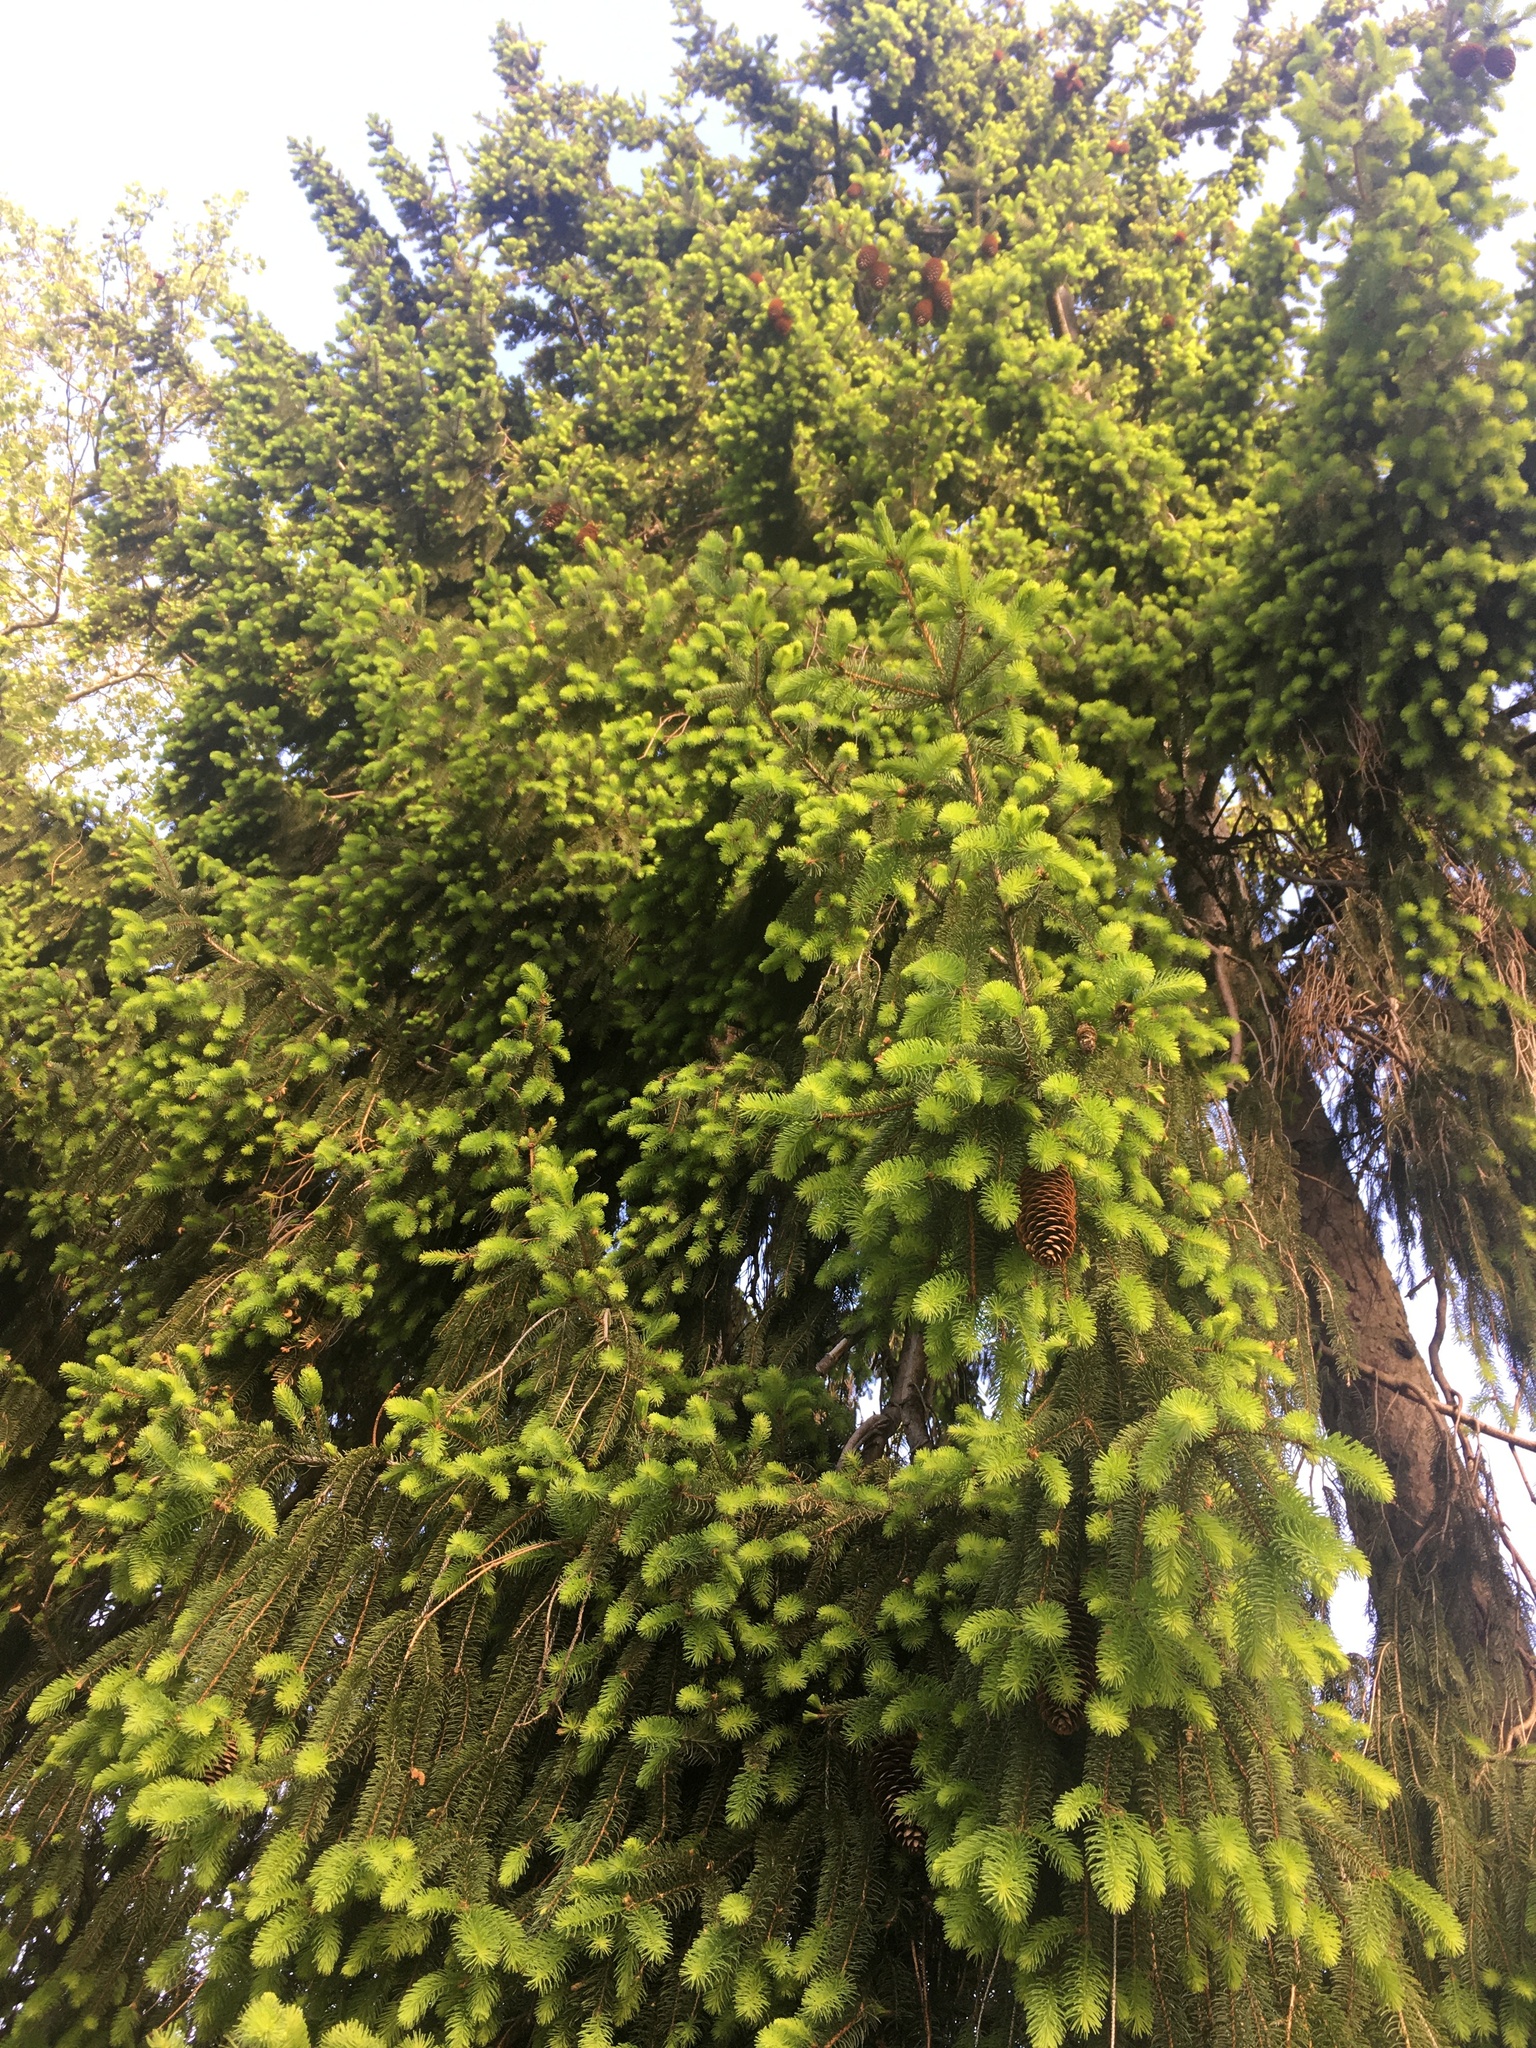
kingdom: Plantae
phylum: Tracheophyta
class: Pinopsida
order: Pinales
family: Pinaceae
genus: Picea
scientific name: Picea abies
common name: Norway spruce
